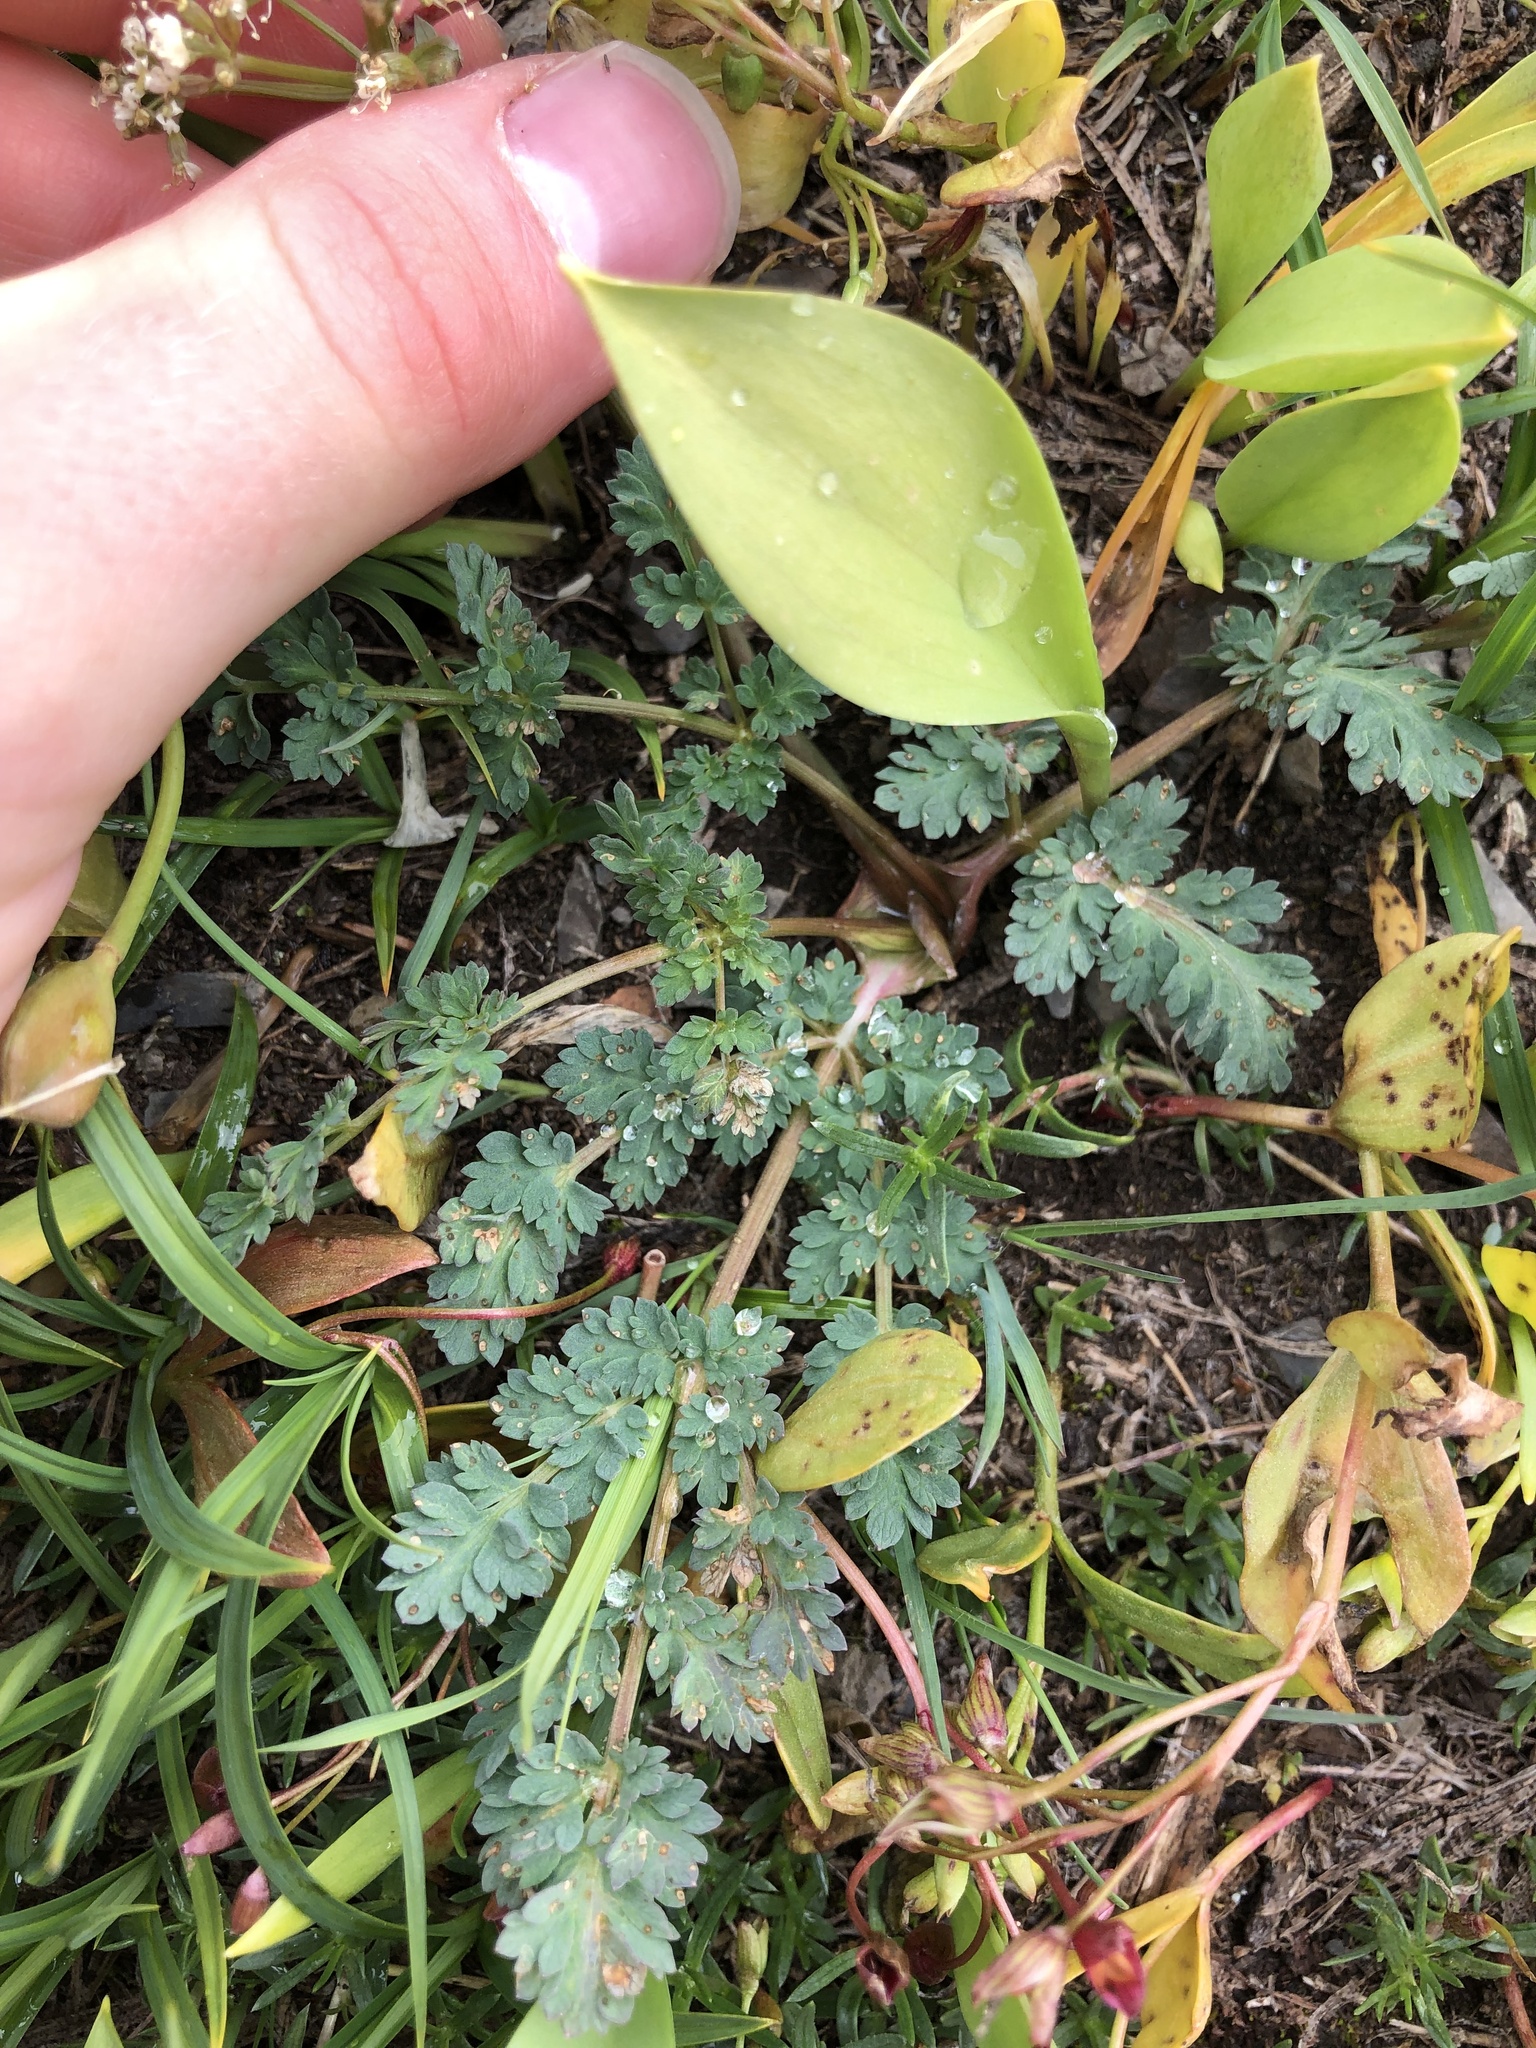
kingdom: Plantae
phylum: Tracheophyta
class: Magnoliopsida
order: Apiales
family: Apiaceae
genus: Lomatium
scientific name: Lomatium martindalei
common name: Cascade desert-parsley
